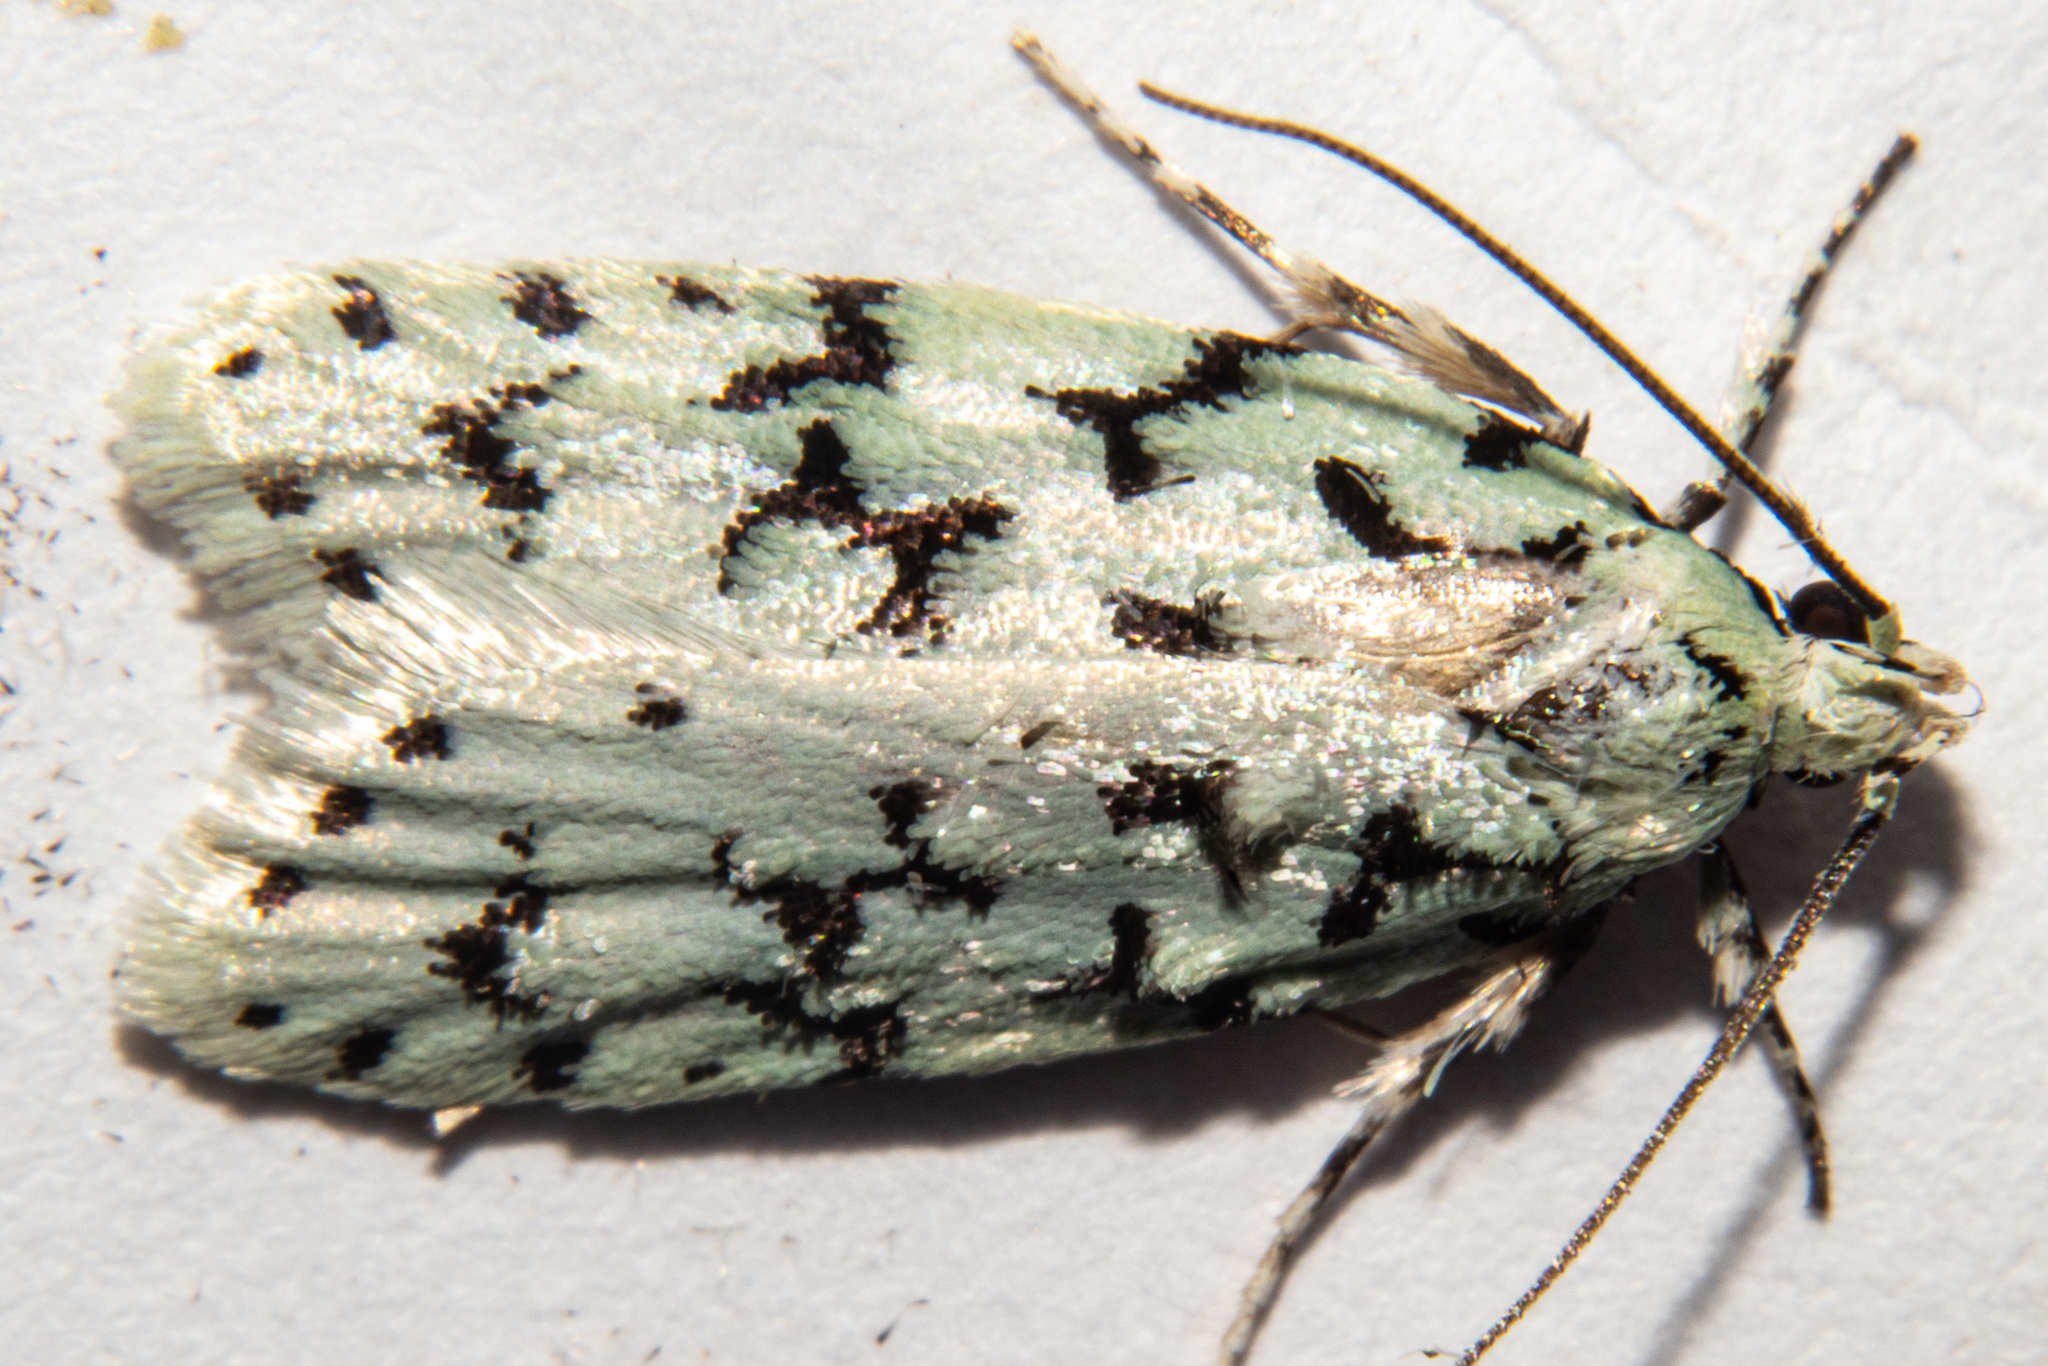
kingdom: Animalia
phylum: Arthropoda
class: Insecta
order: Lepidoptera
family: Oecophoridae
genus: Izatha
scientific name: Izatha huttoni
